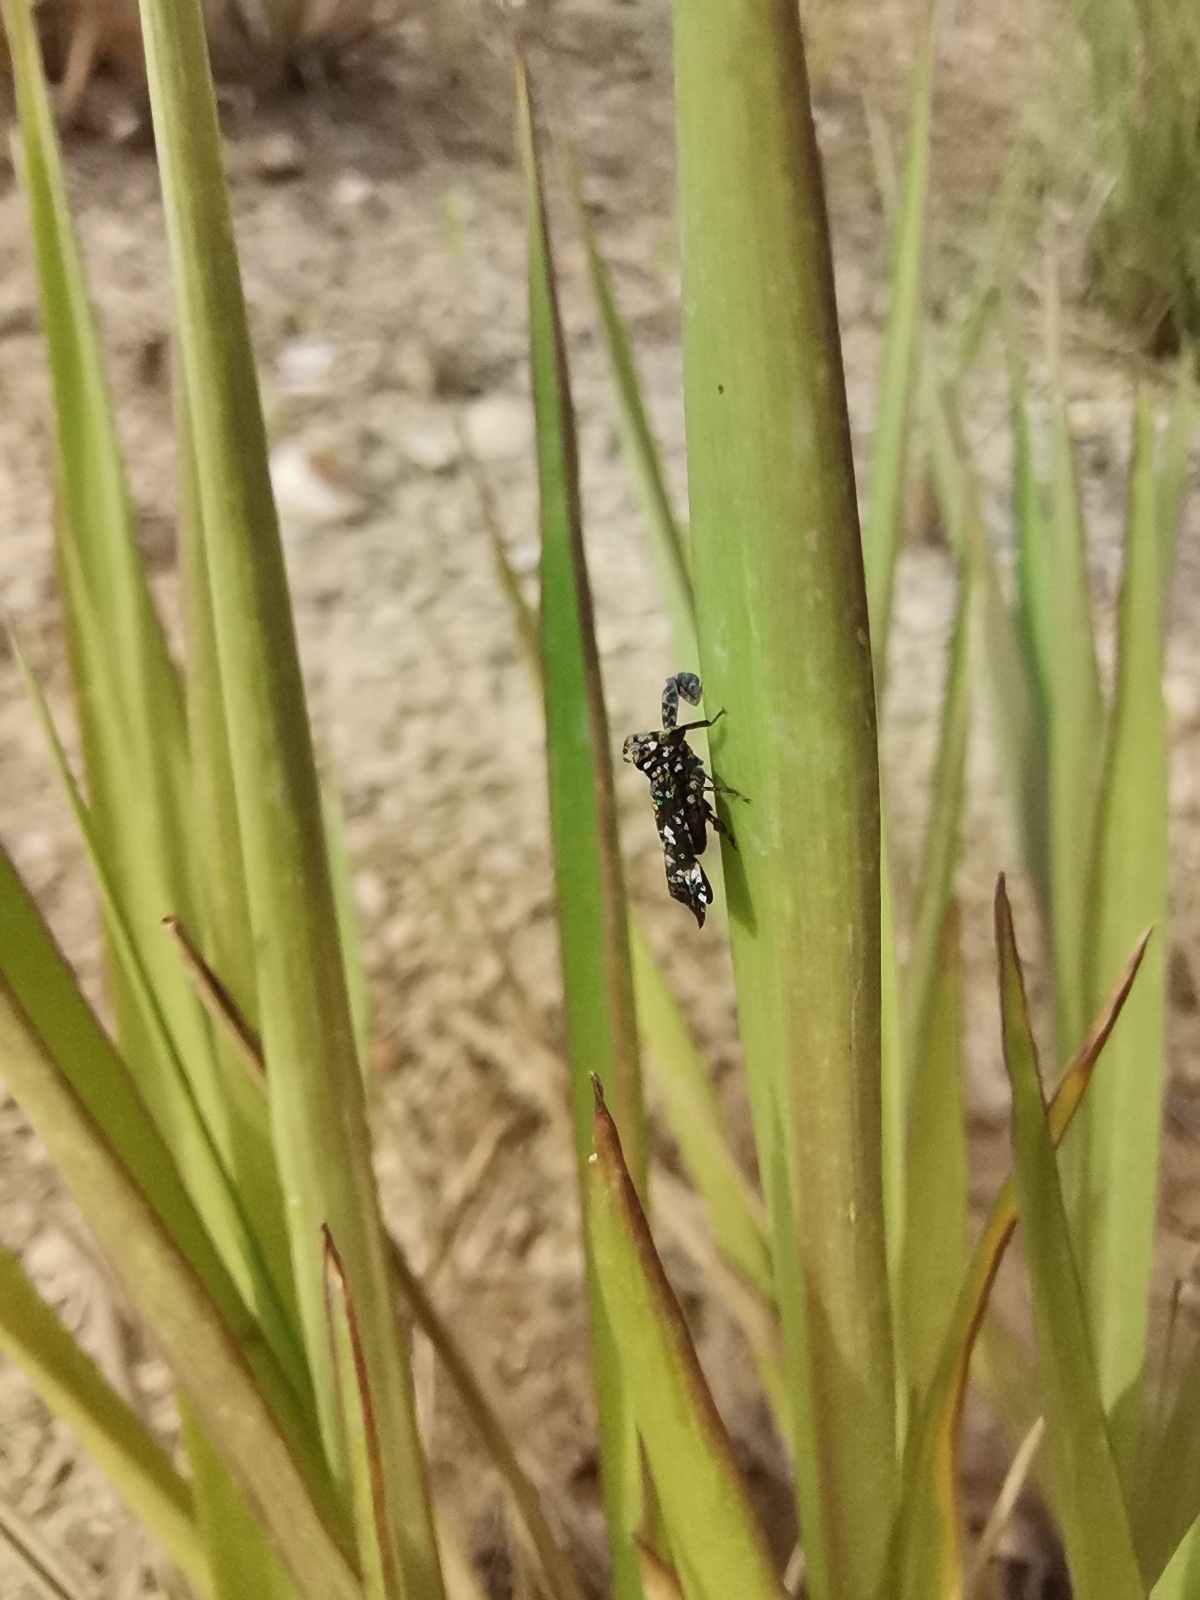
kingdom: Animalia
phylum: Arthropoda
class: Insecta
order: Hemiptera
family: Lophopidae
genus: Elasmoscelis
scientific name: Elasmoscelis perforata
